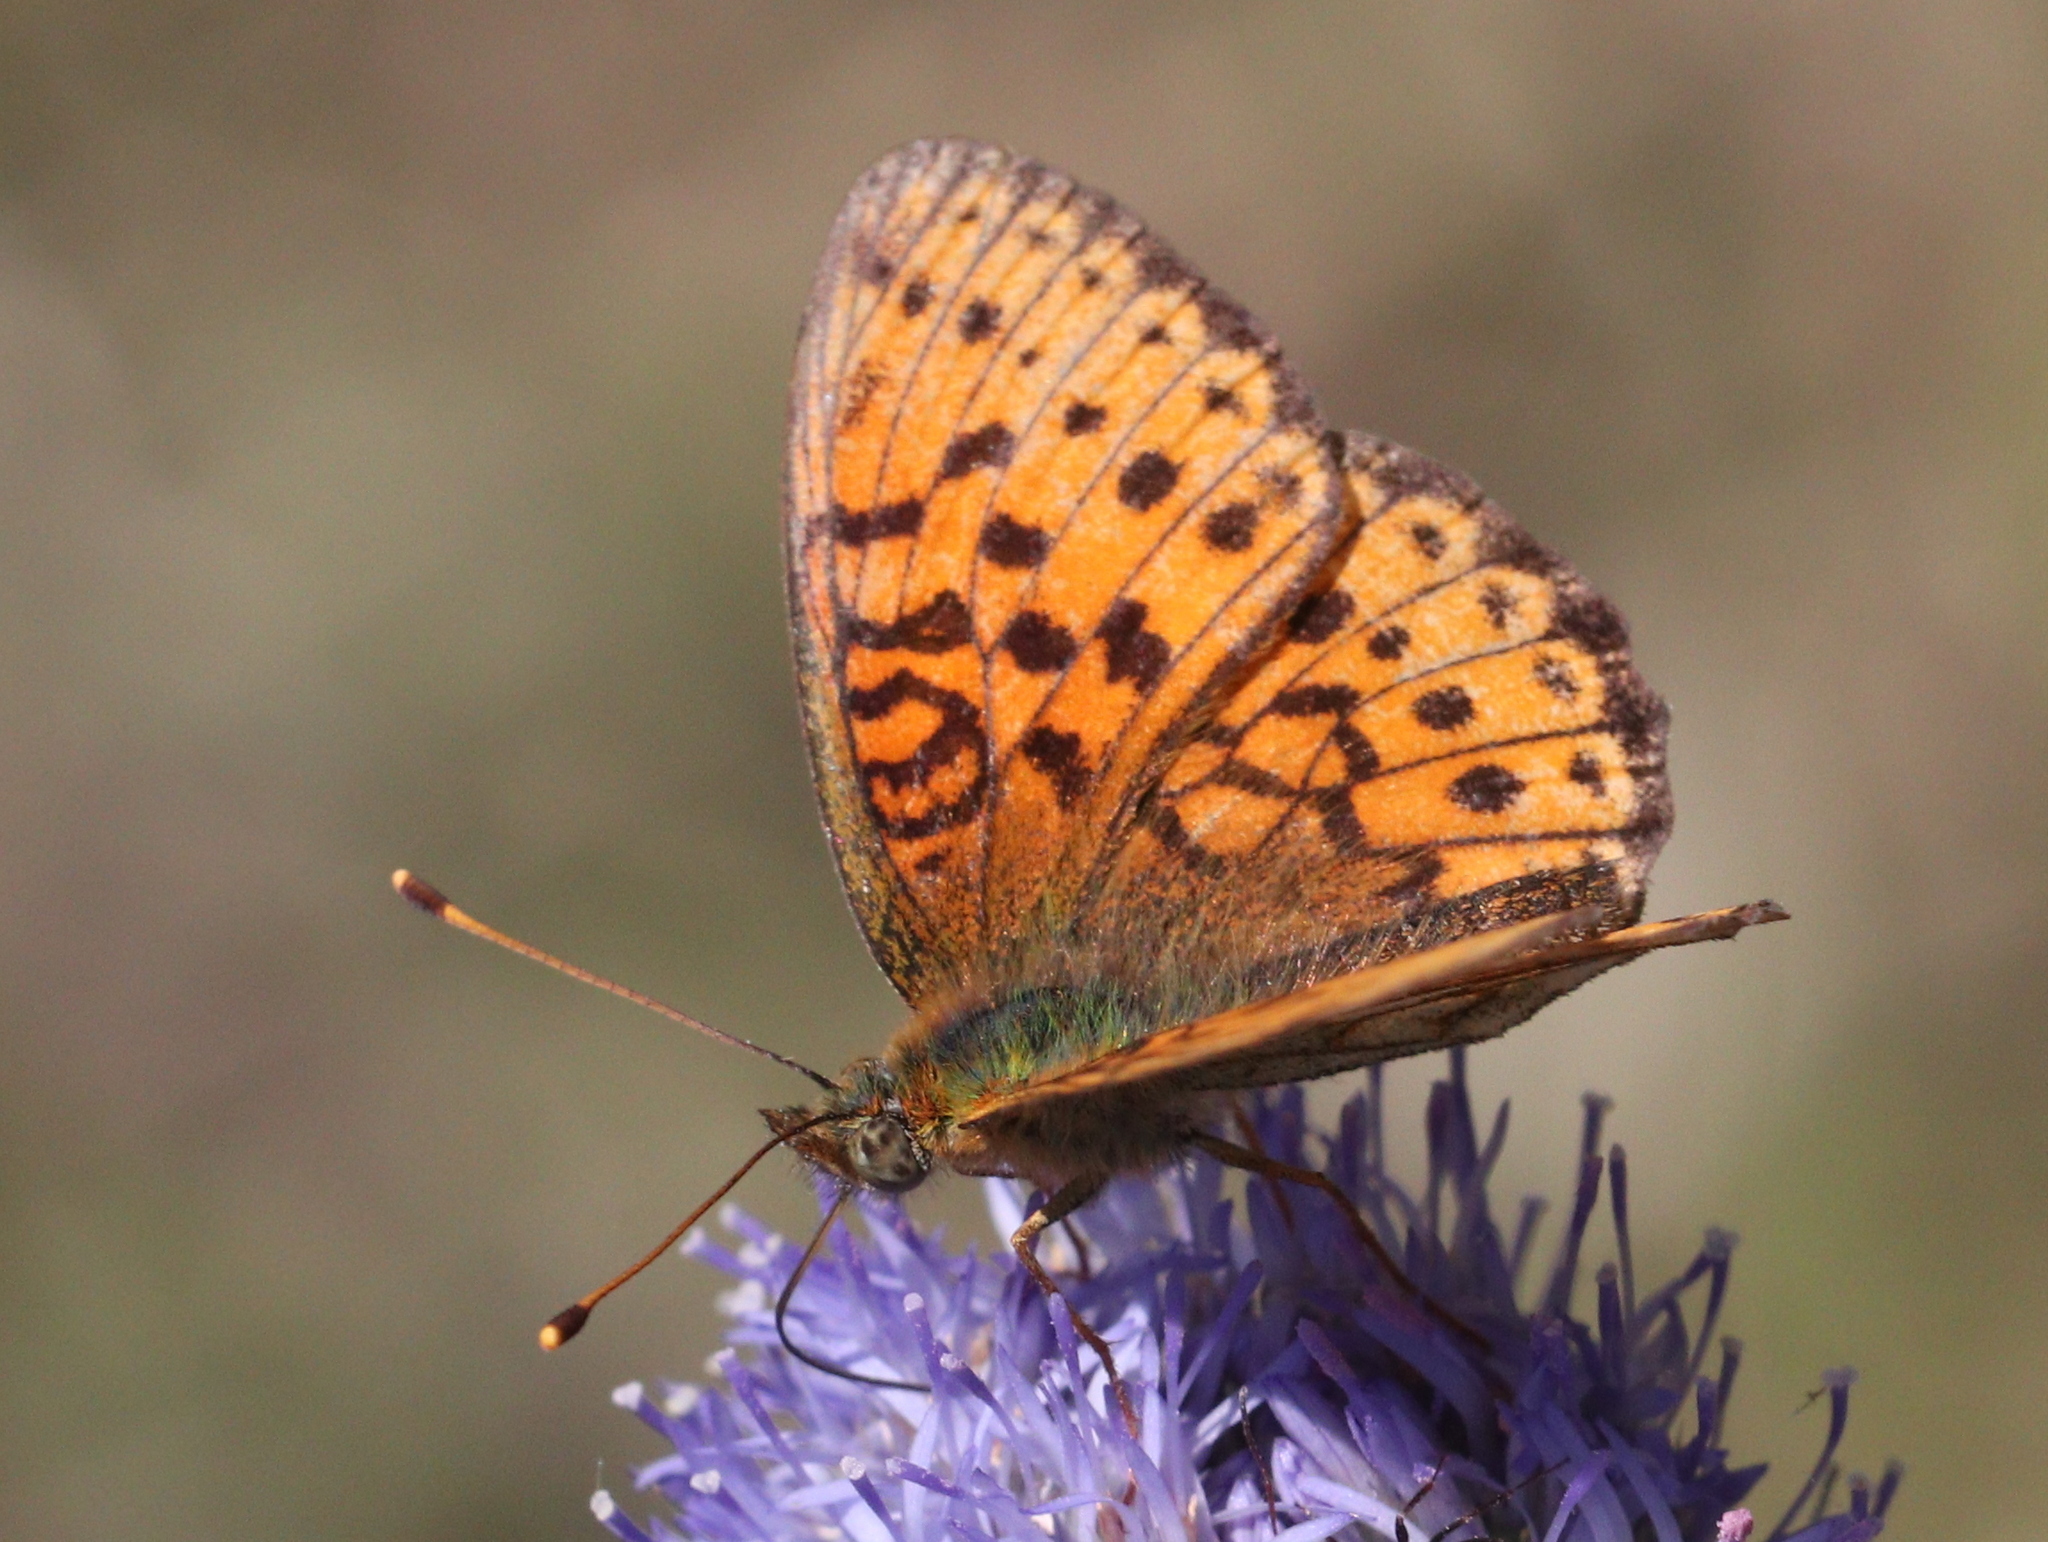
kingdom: Animalia
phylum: Arthropoda
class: Insecta
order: Lepidoptera
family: Nymphalidae
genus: Brenthis
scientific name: Brenthis ino
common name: Lesser marbled fritillary
